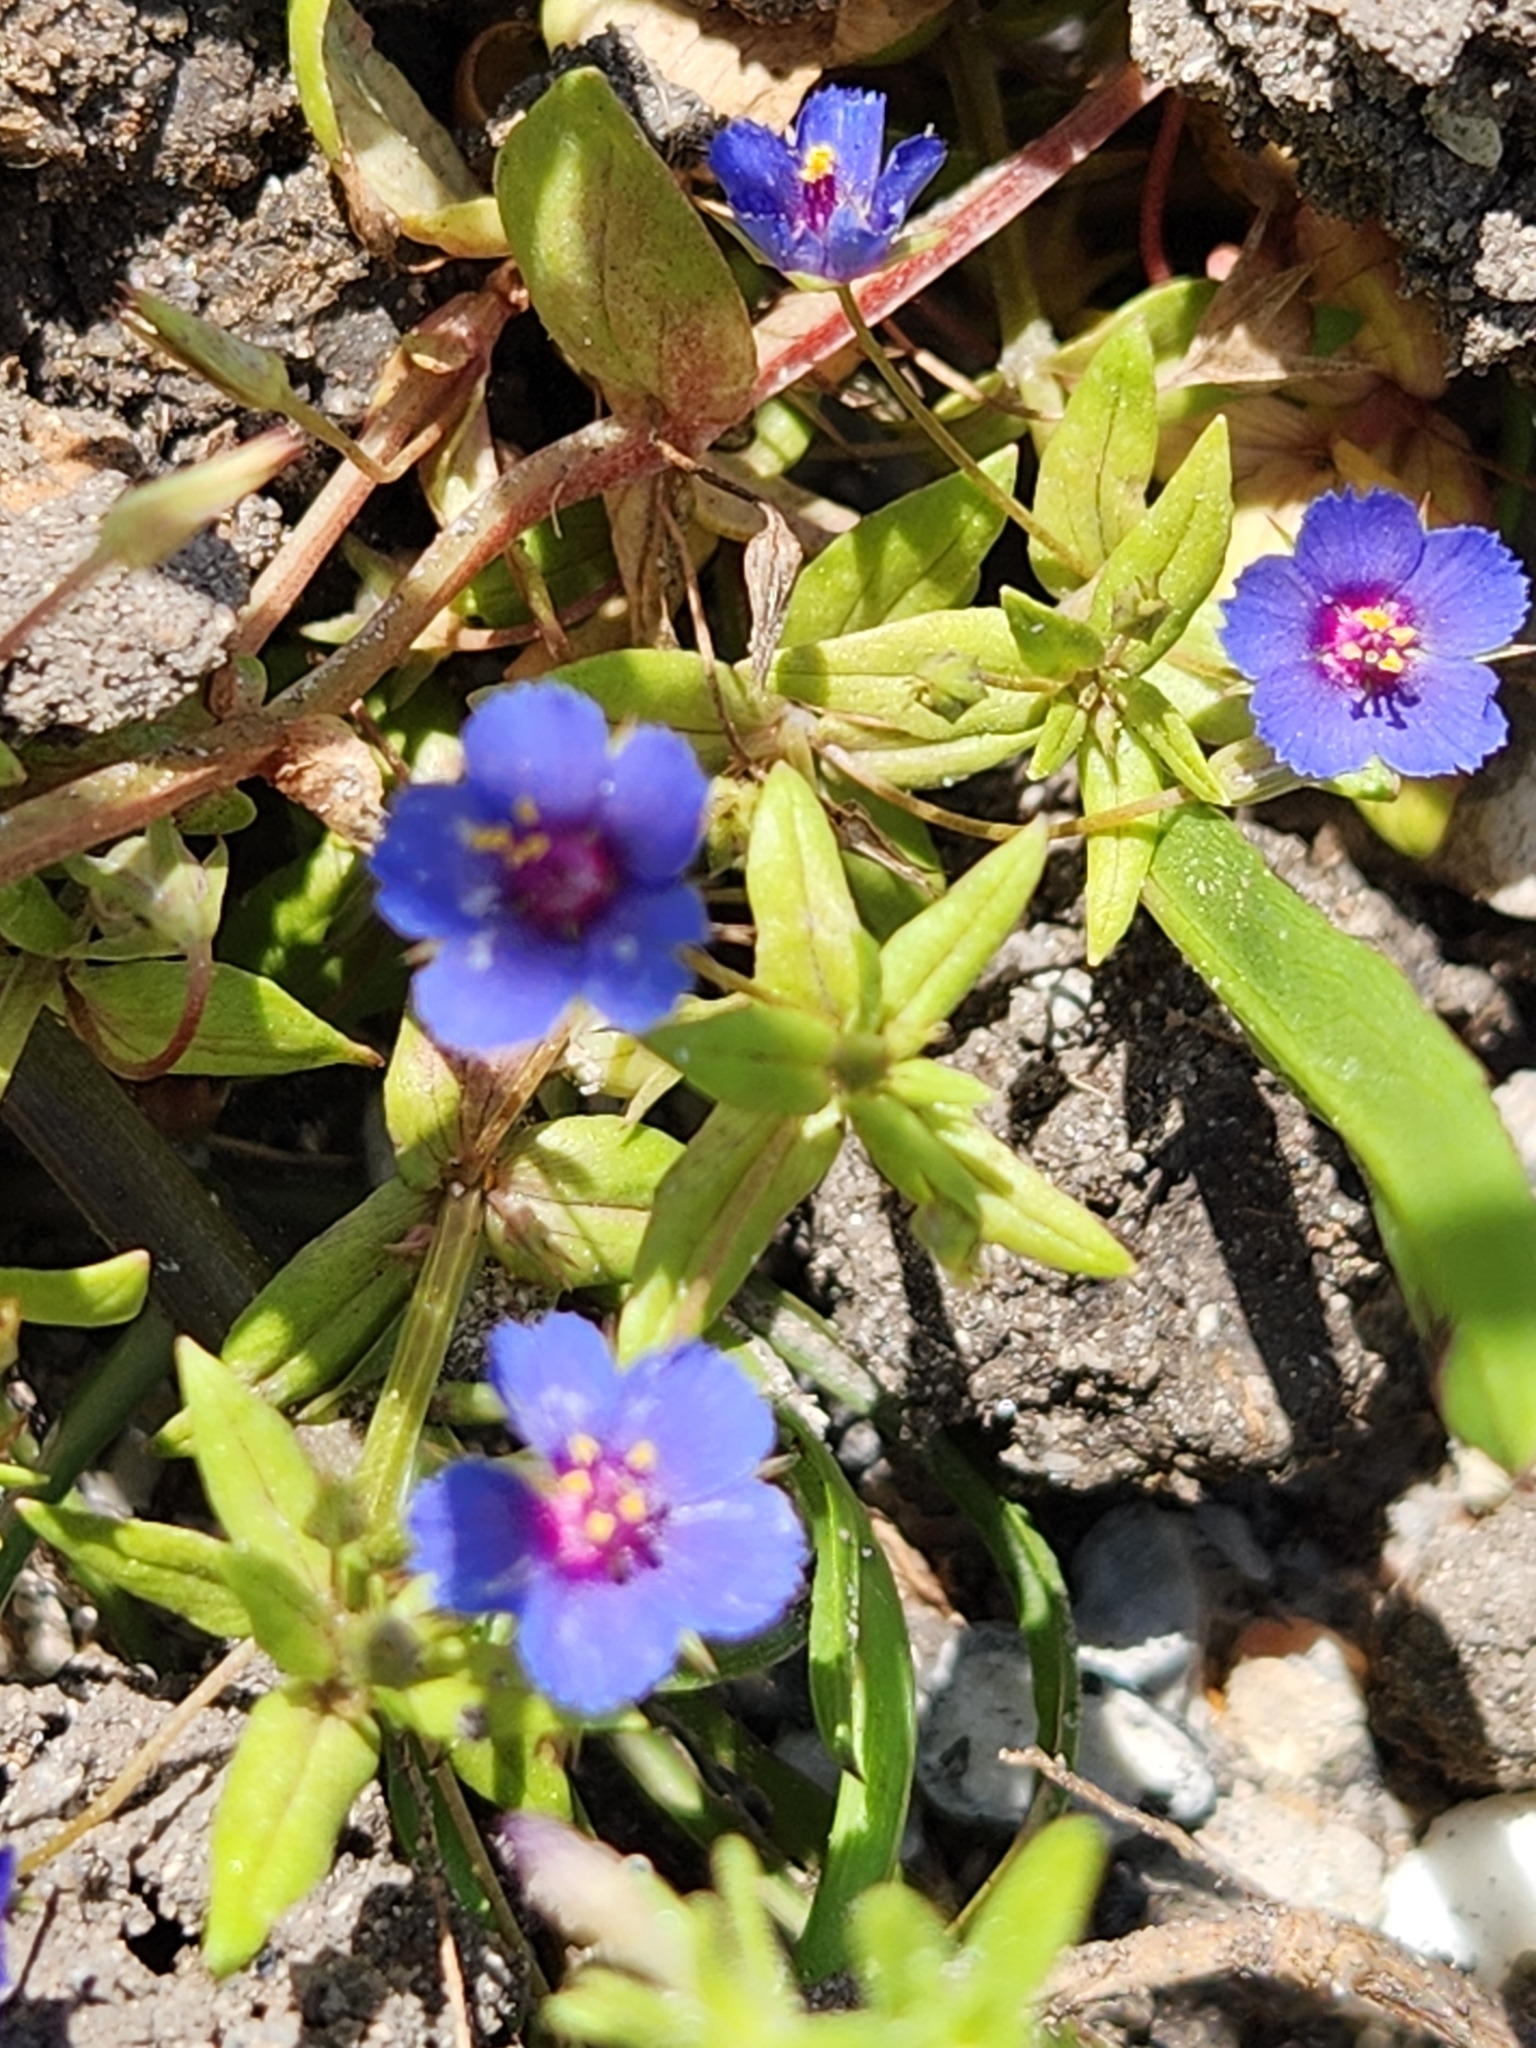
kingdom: Plantae
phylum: Tracheophyta
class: Magnoliopsida
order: Ericales
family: Primulaceae
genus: Lysimachia
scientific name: Lysimachia foemina
